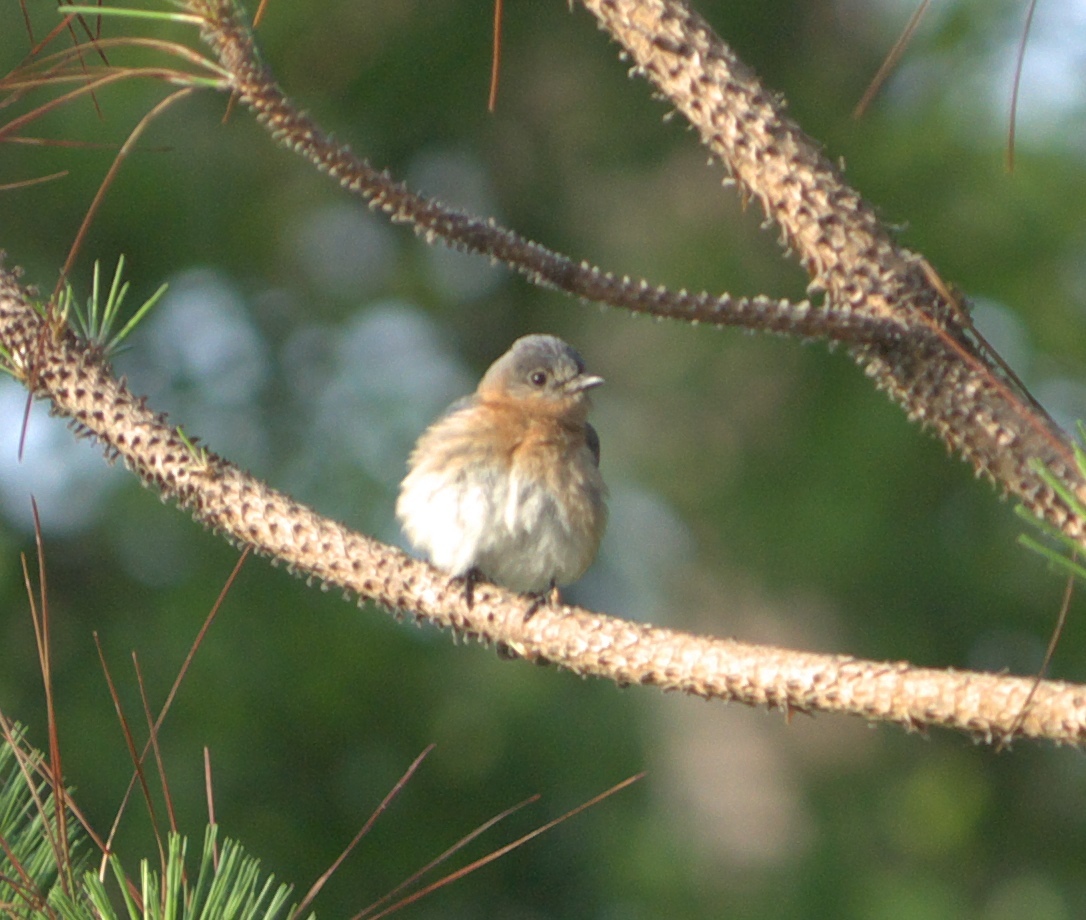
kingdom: Animalia
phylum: Chordata
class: Aves
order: Passeriformes
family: Turdidae
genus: Sialia
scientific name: Sialia sialis
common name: Eastern bluebird
